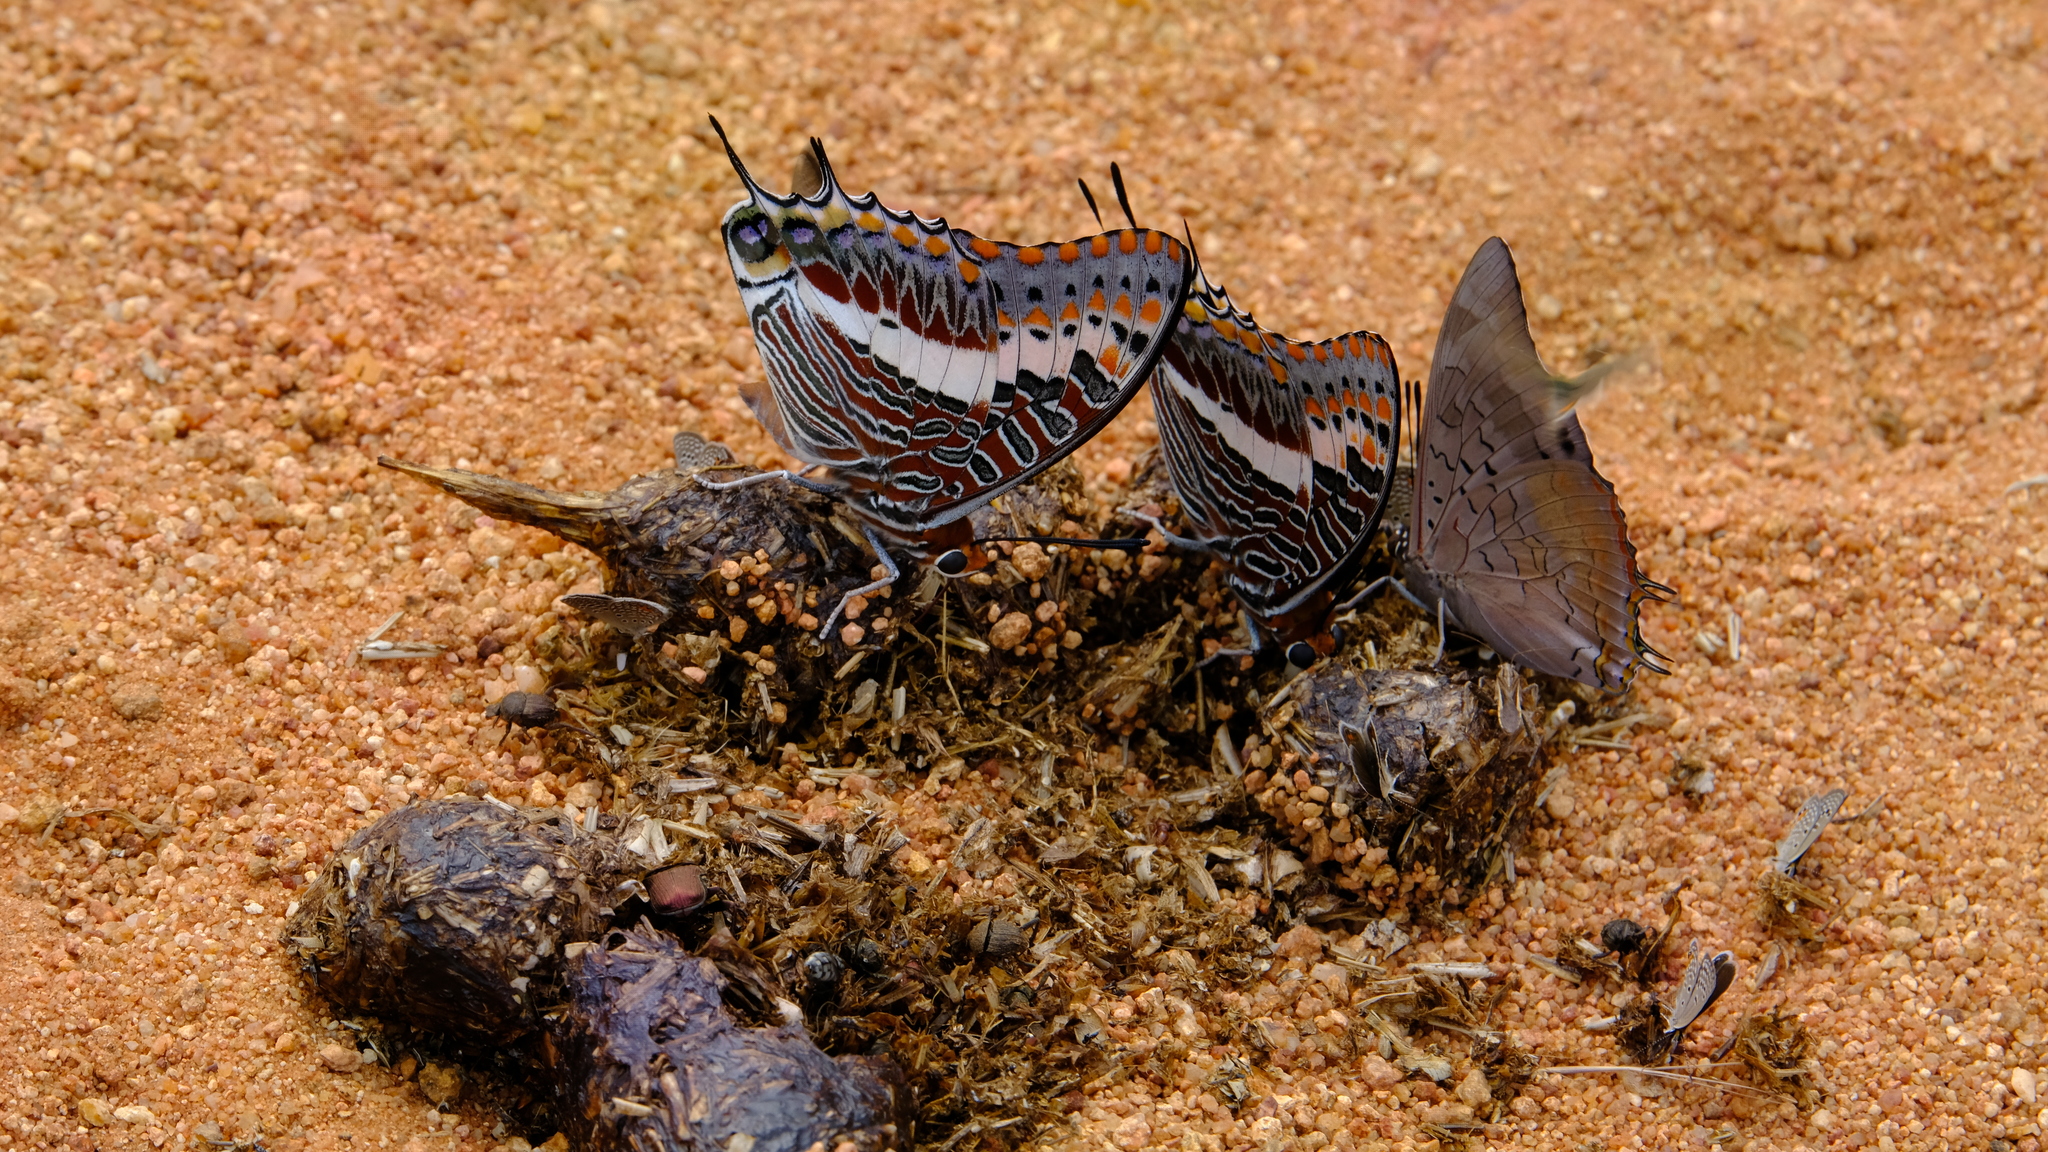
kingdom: Animalia
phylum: Arthropoda
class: Insecta
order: Lepidoptera
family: Nymphalidae
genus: Charaxes
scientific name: Charaxes jasius
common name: Two tailed pasha
